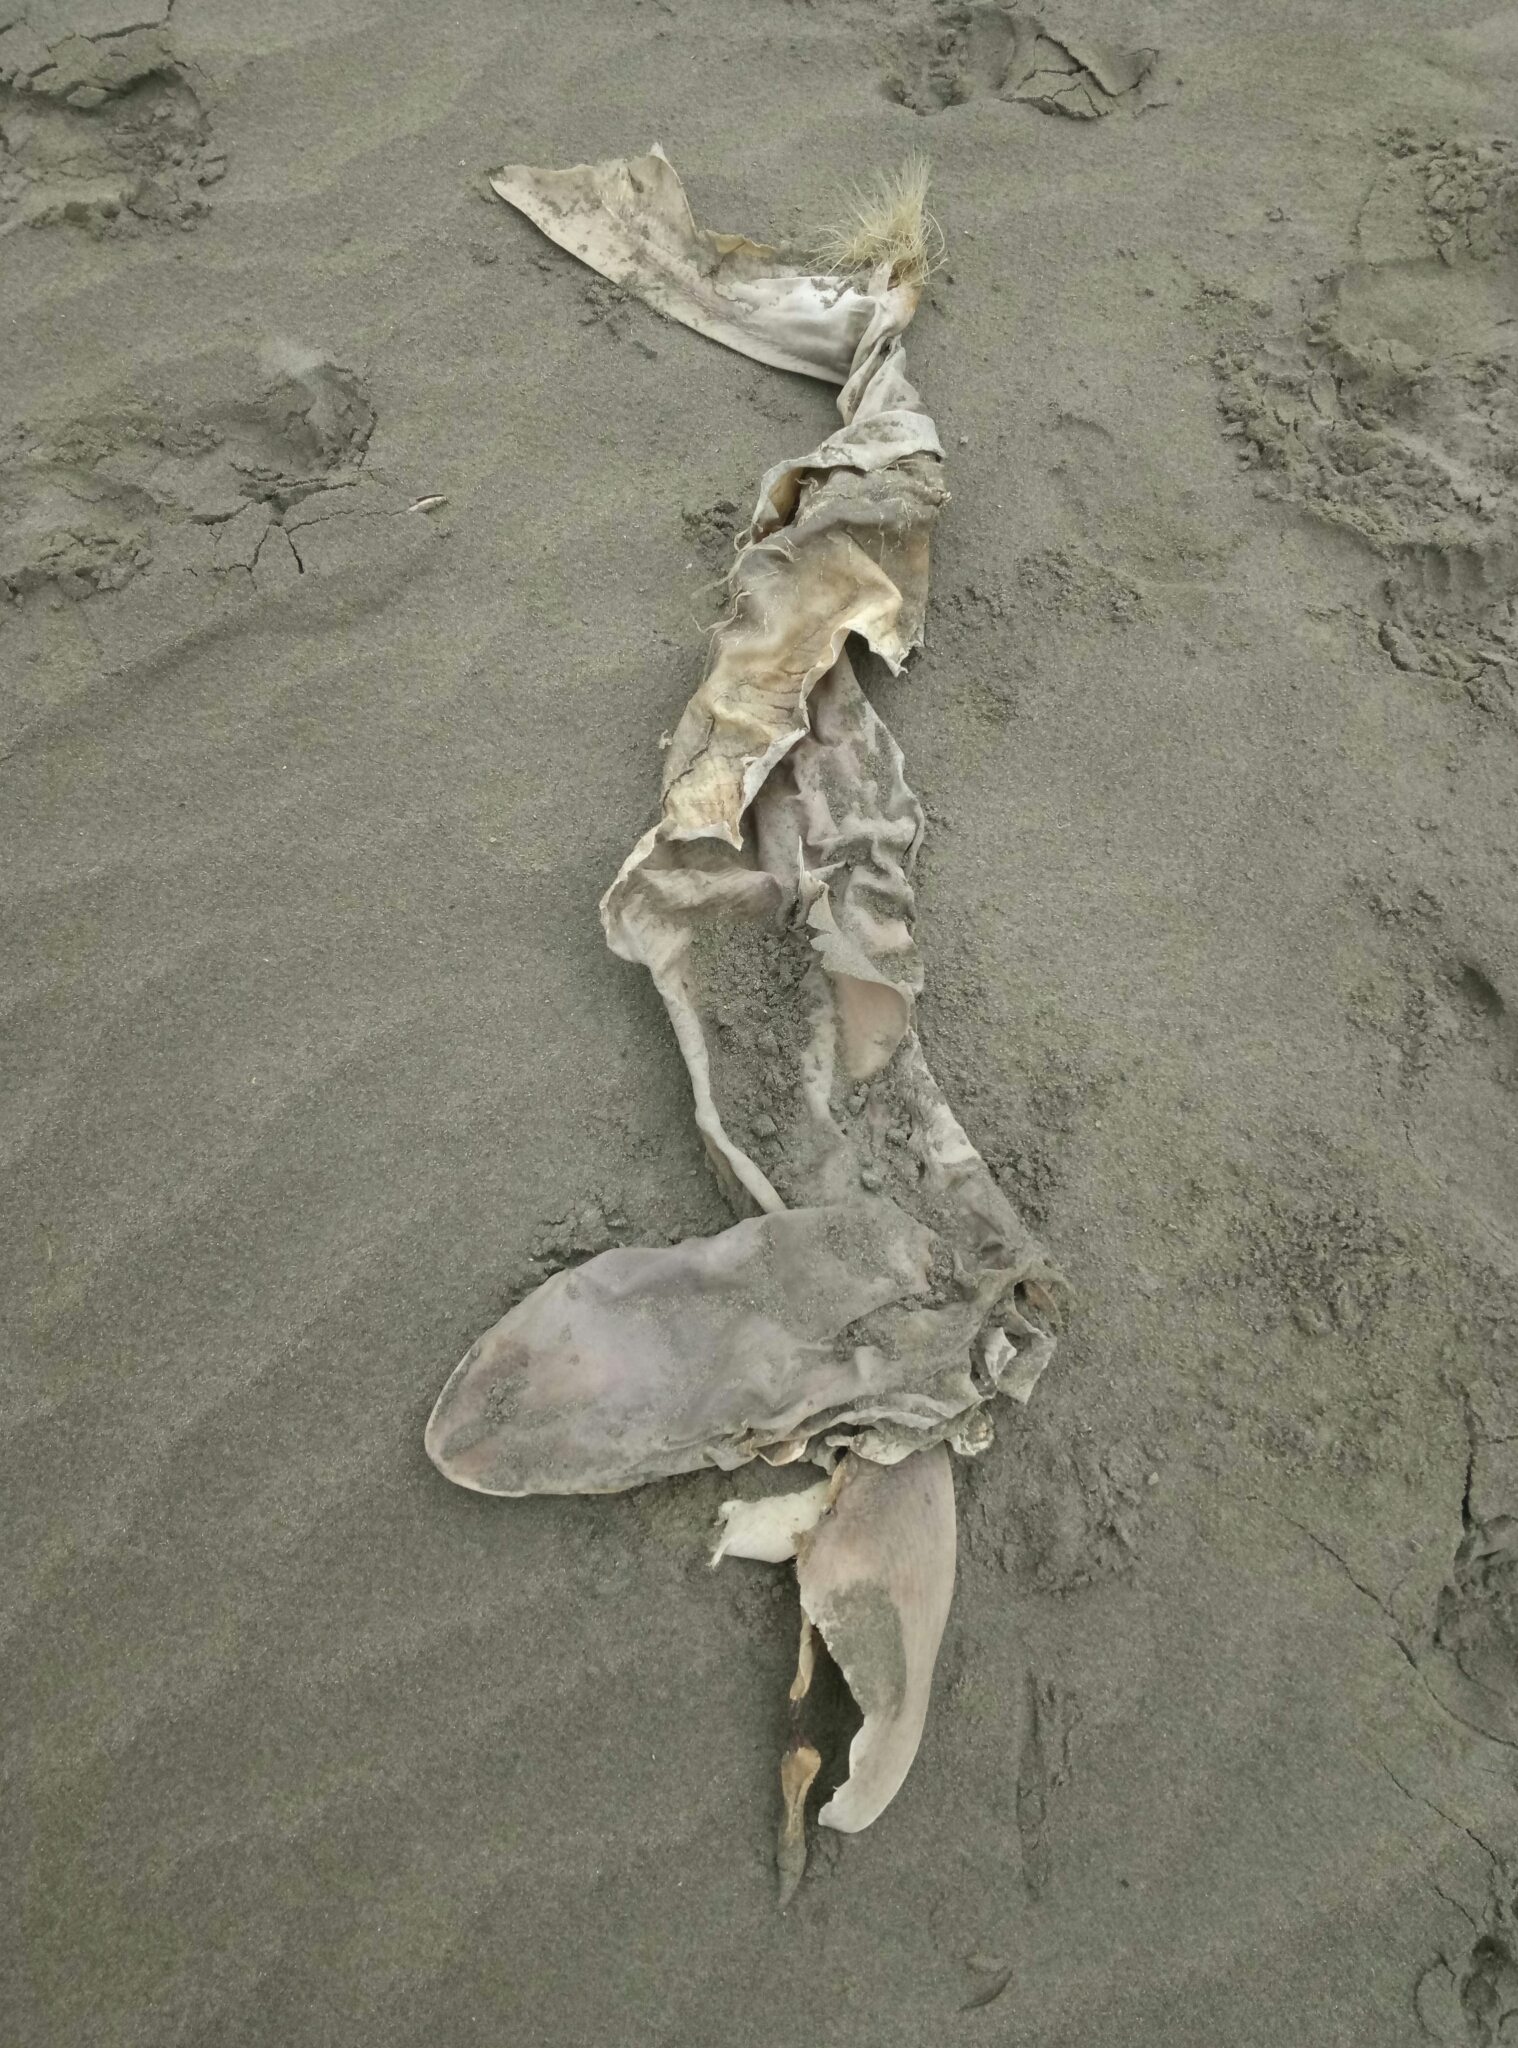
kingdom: Animalia
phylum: Chordata
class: Elasmobranchii
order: Carcharhiniformes
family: Triakidae
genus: Galeorhinus
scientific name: Galeorhinus galeus
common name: Tope
